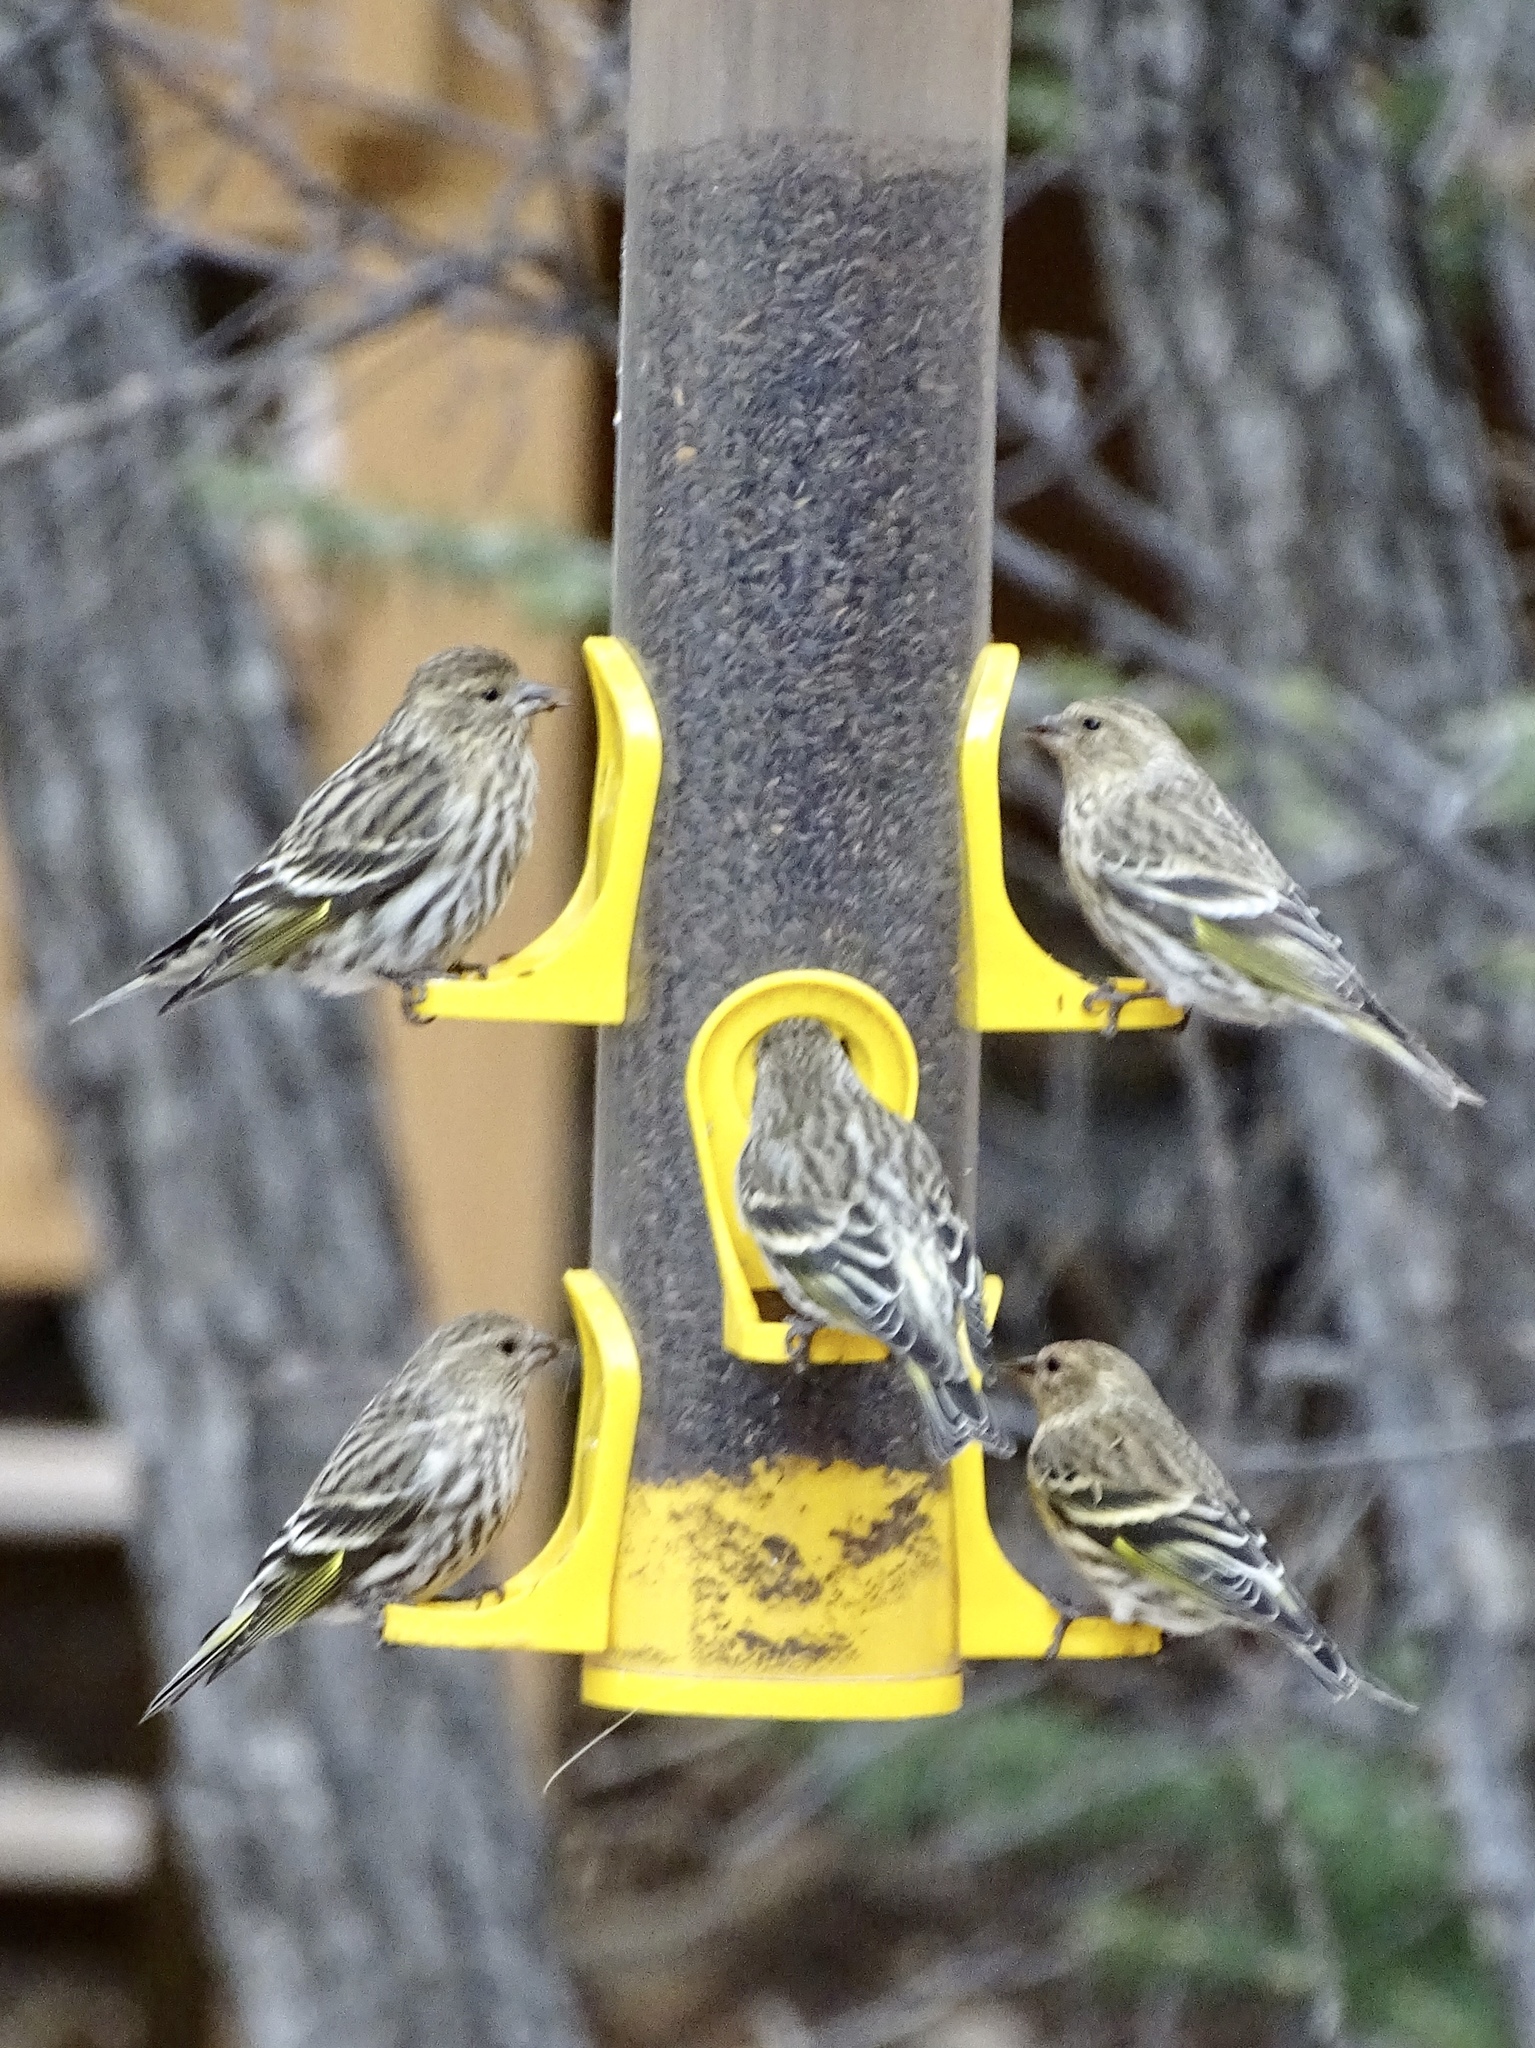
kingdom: Animalia
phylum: Chordata
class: Aves
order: Passeriformes
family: Fringillidae
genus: Spinus
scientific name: Spinus pinus
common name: Pine siskin
